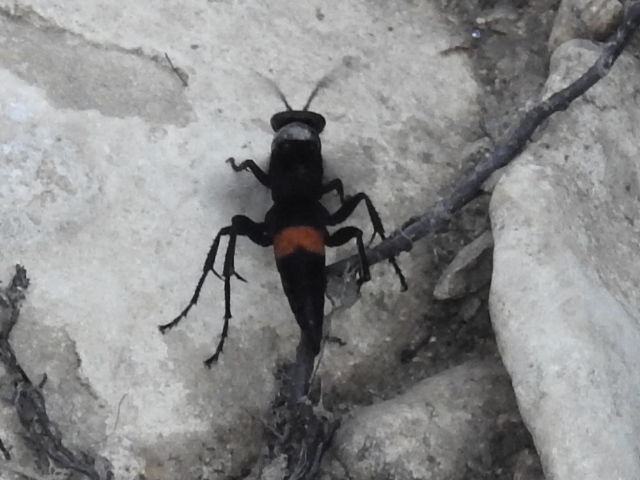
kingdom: Animalia
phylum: Arthropoda
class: Insecta
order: Hymenoptera
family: Pompilidae
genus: Psorthaspis
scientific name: Psorthaspis brimleyi
